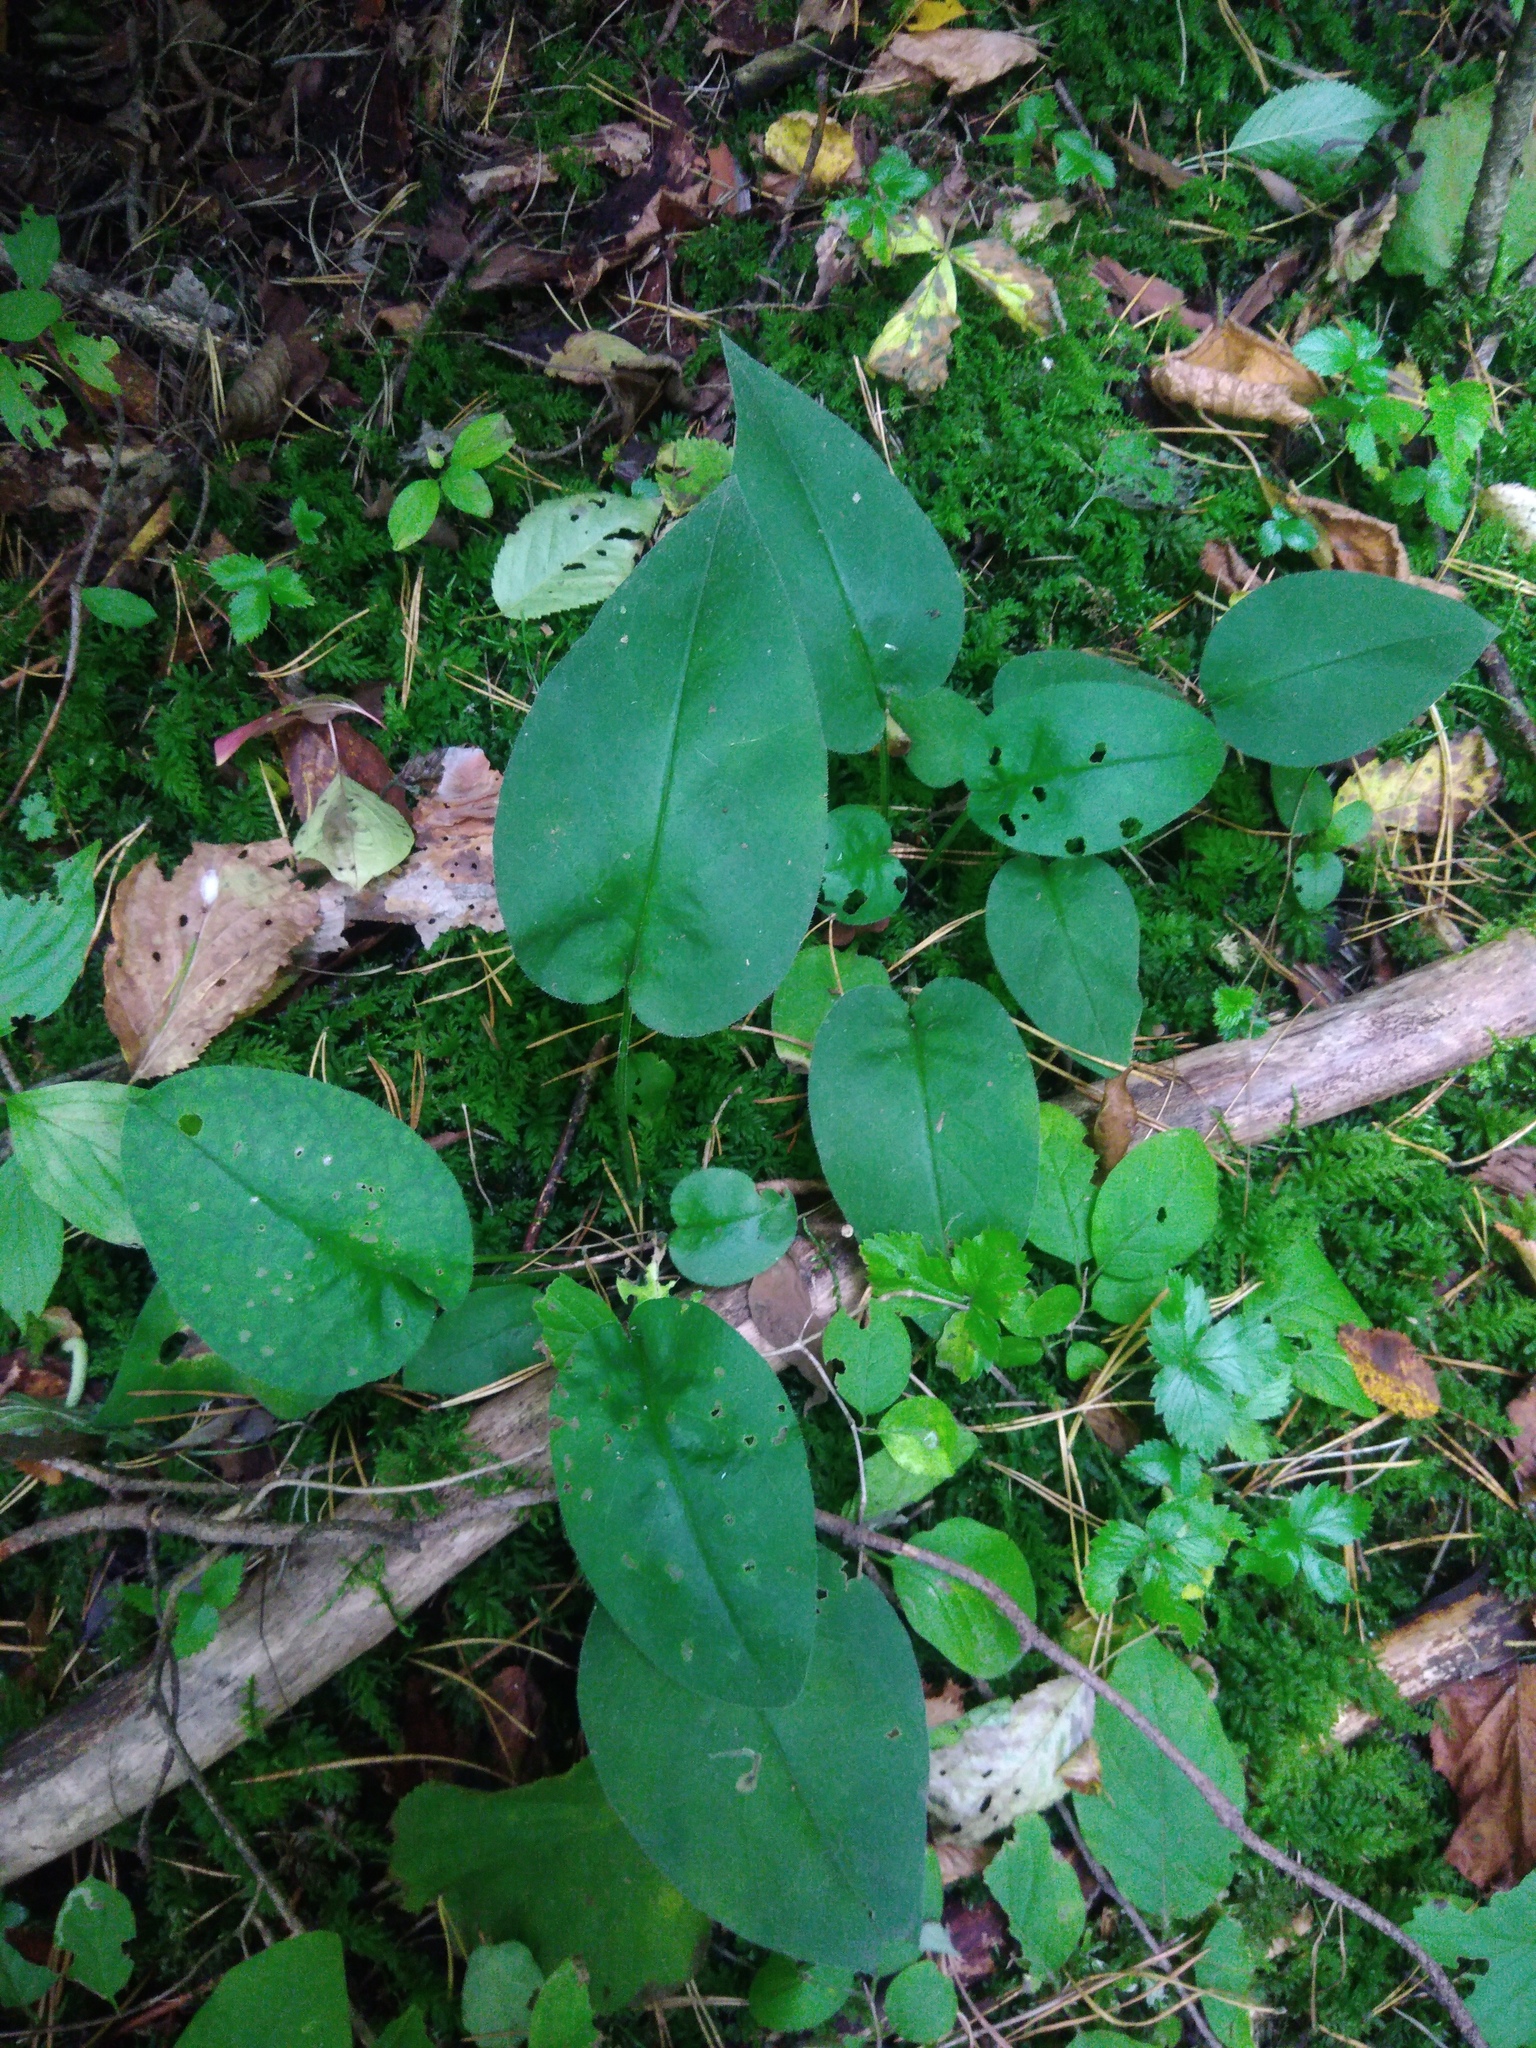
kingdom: Plantae
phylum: Tracheophyta
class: Magnoliopsida
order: Boraginales
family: Boraginaceae
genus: Pulmonaria
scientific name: Pulmonaria obscura
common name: Suffolk lungwort
